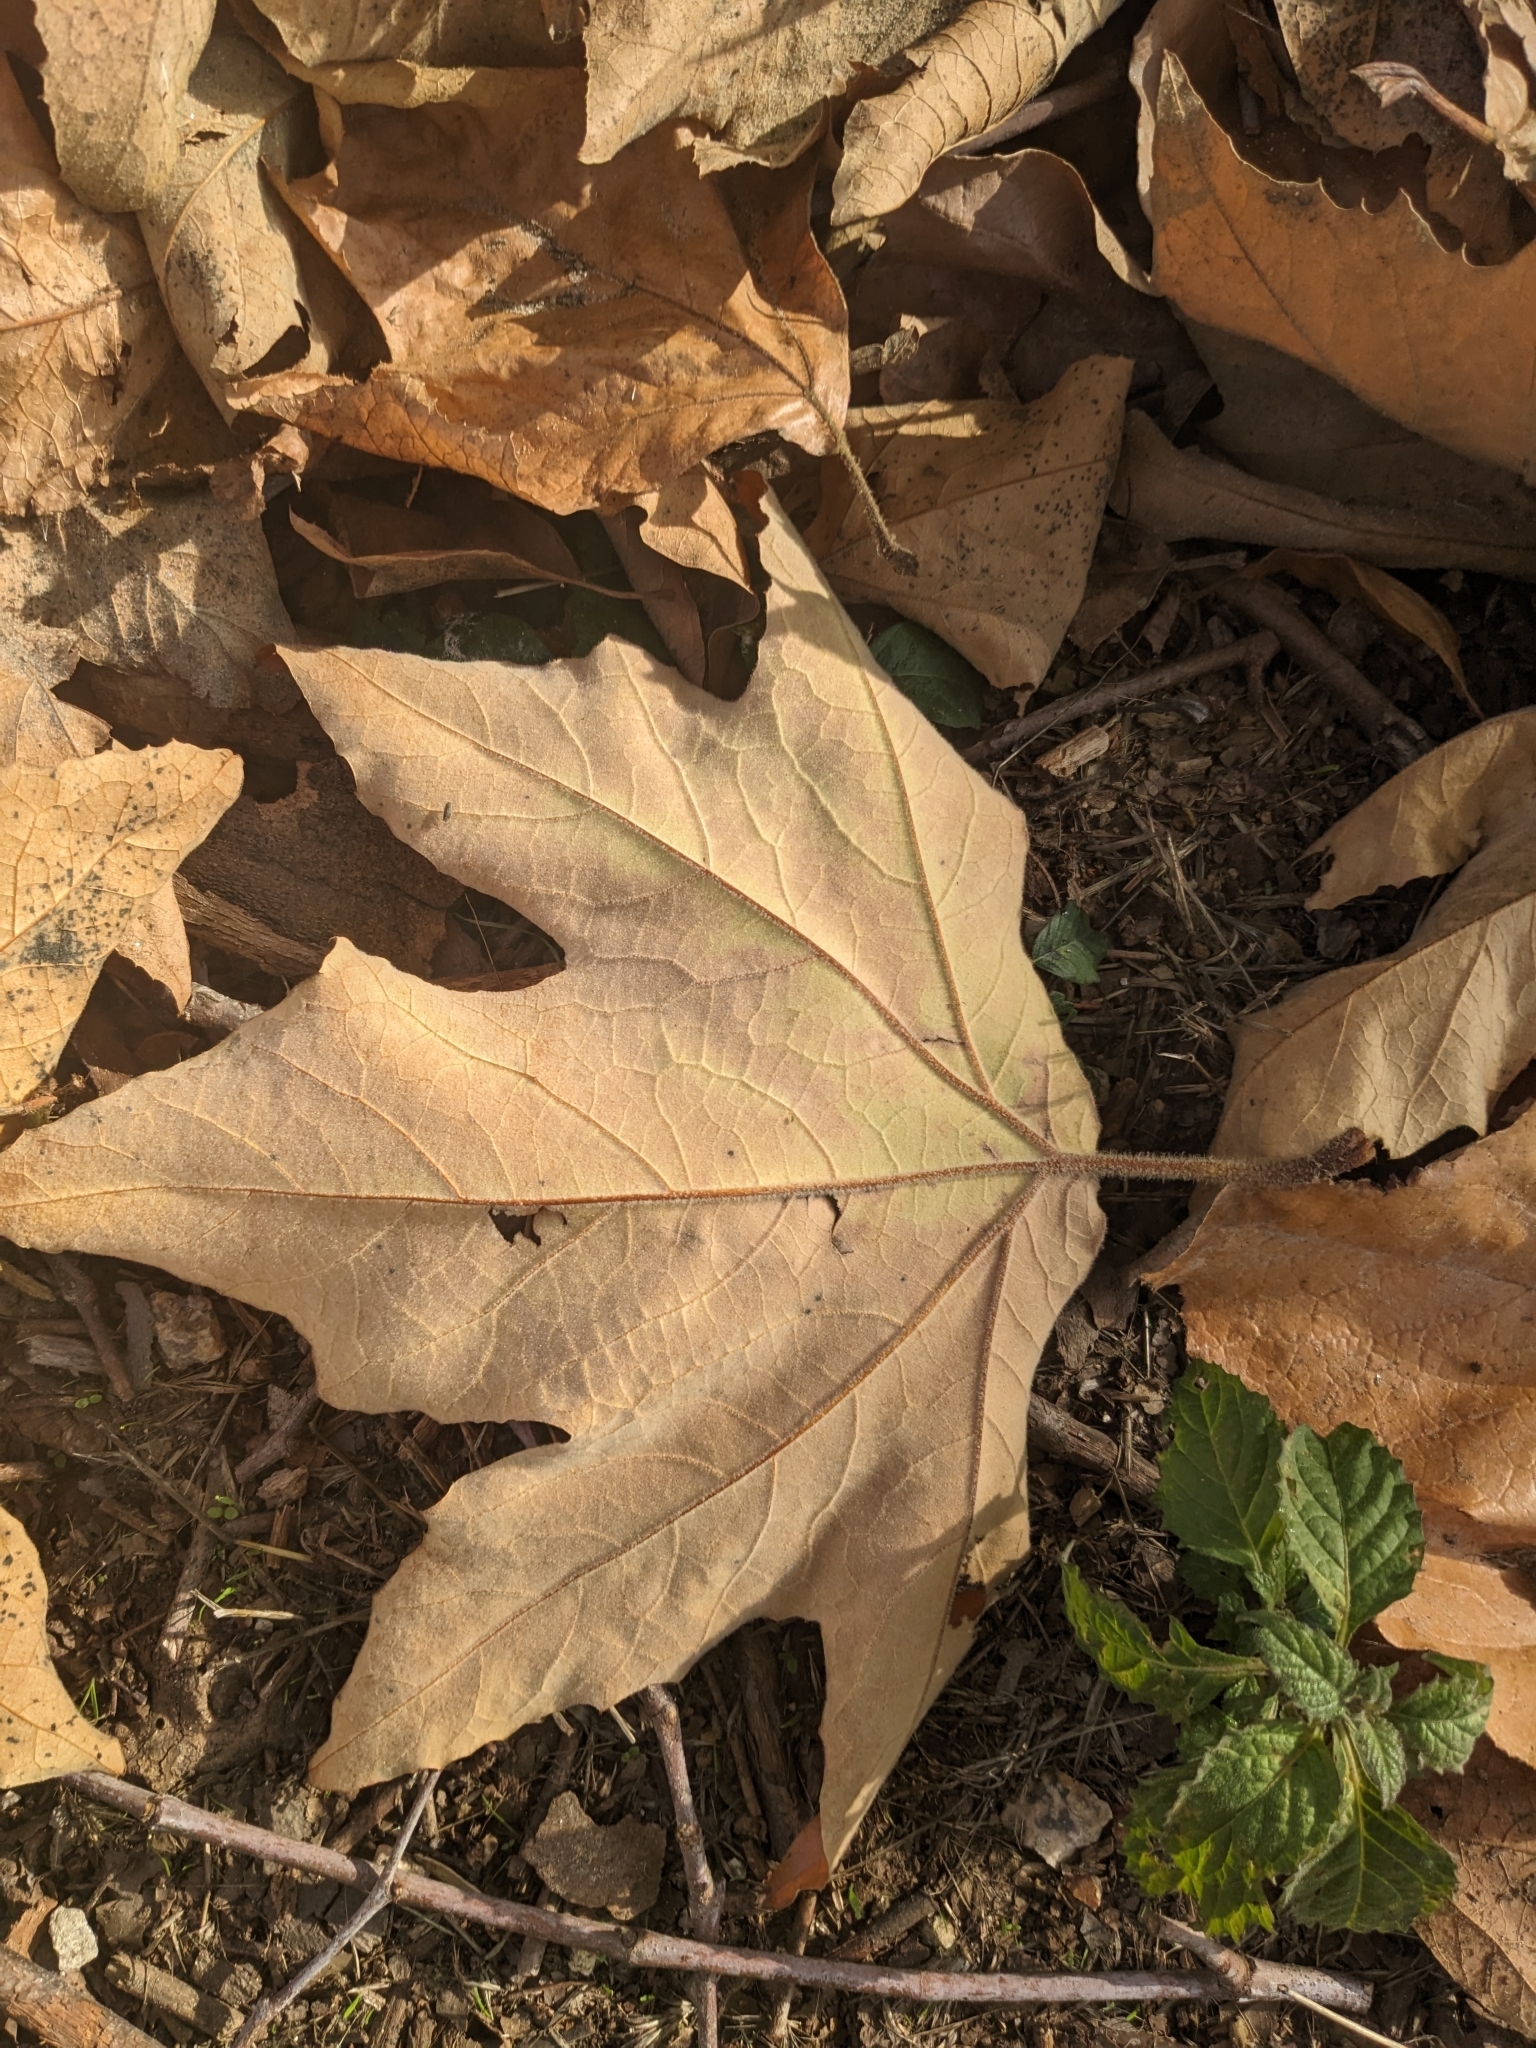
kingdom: Plantae
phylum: Tracheophyta
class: Magnoliopsida
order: Proteales
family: Platanaceae
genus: Platanus
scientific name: Platanus racemosa
